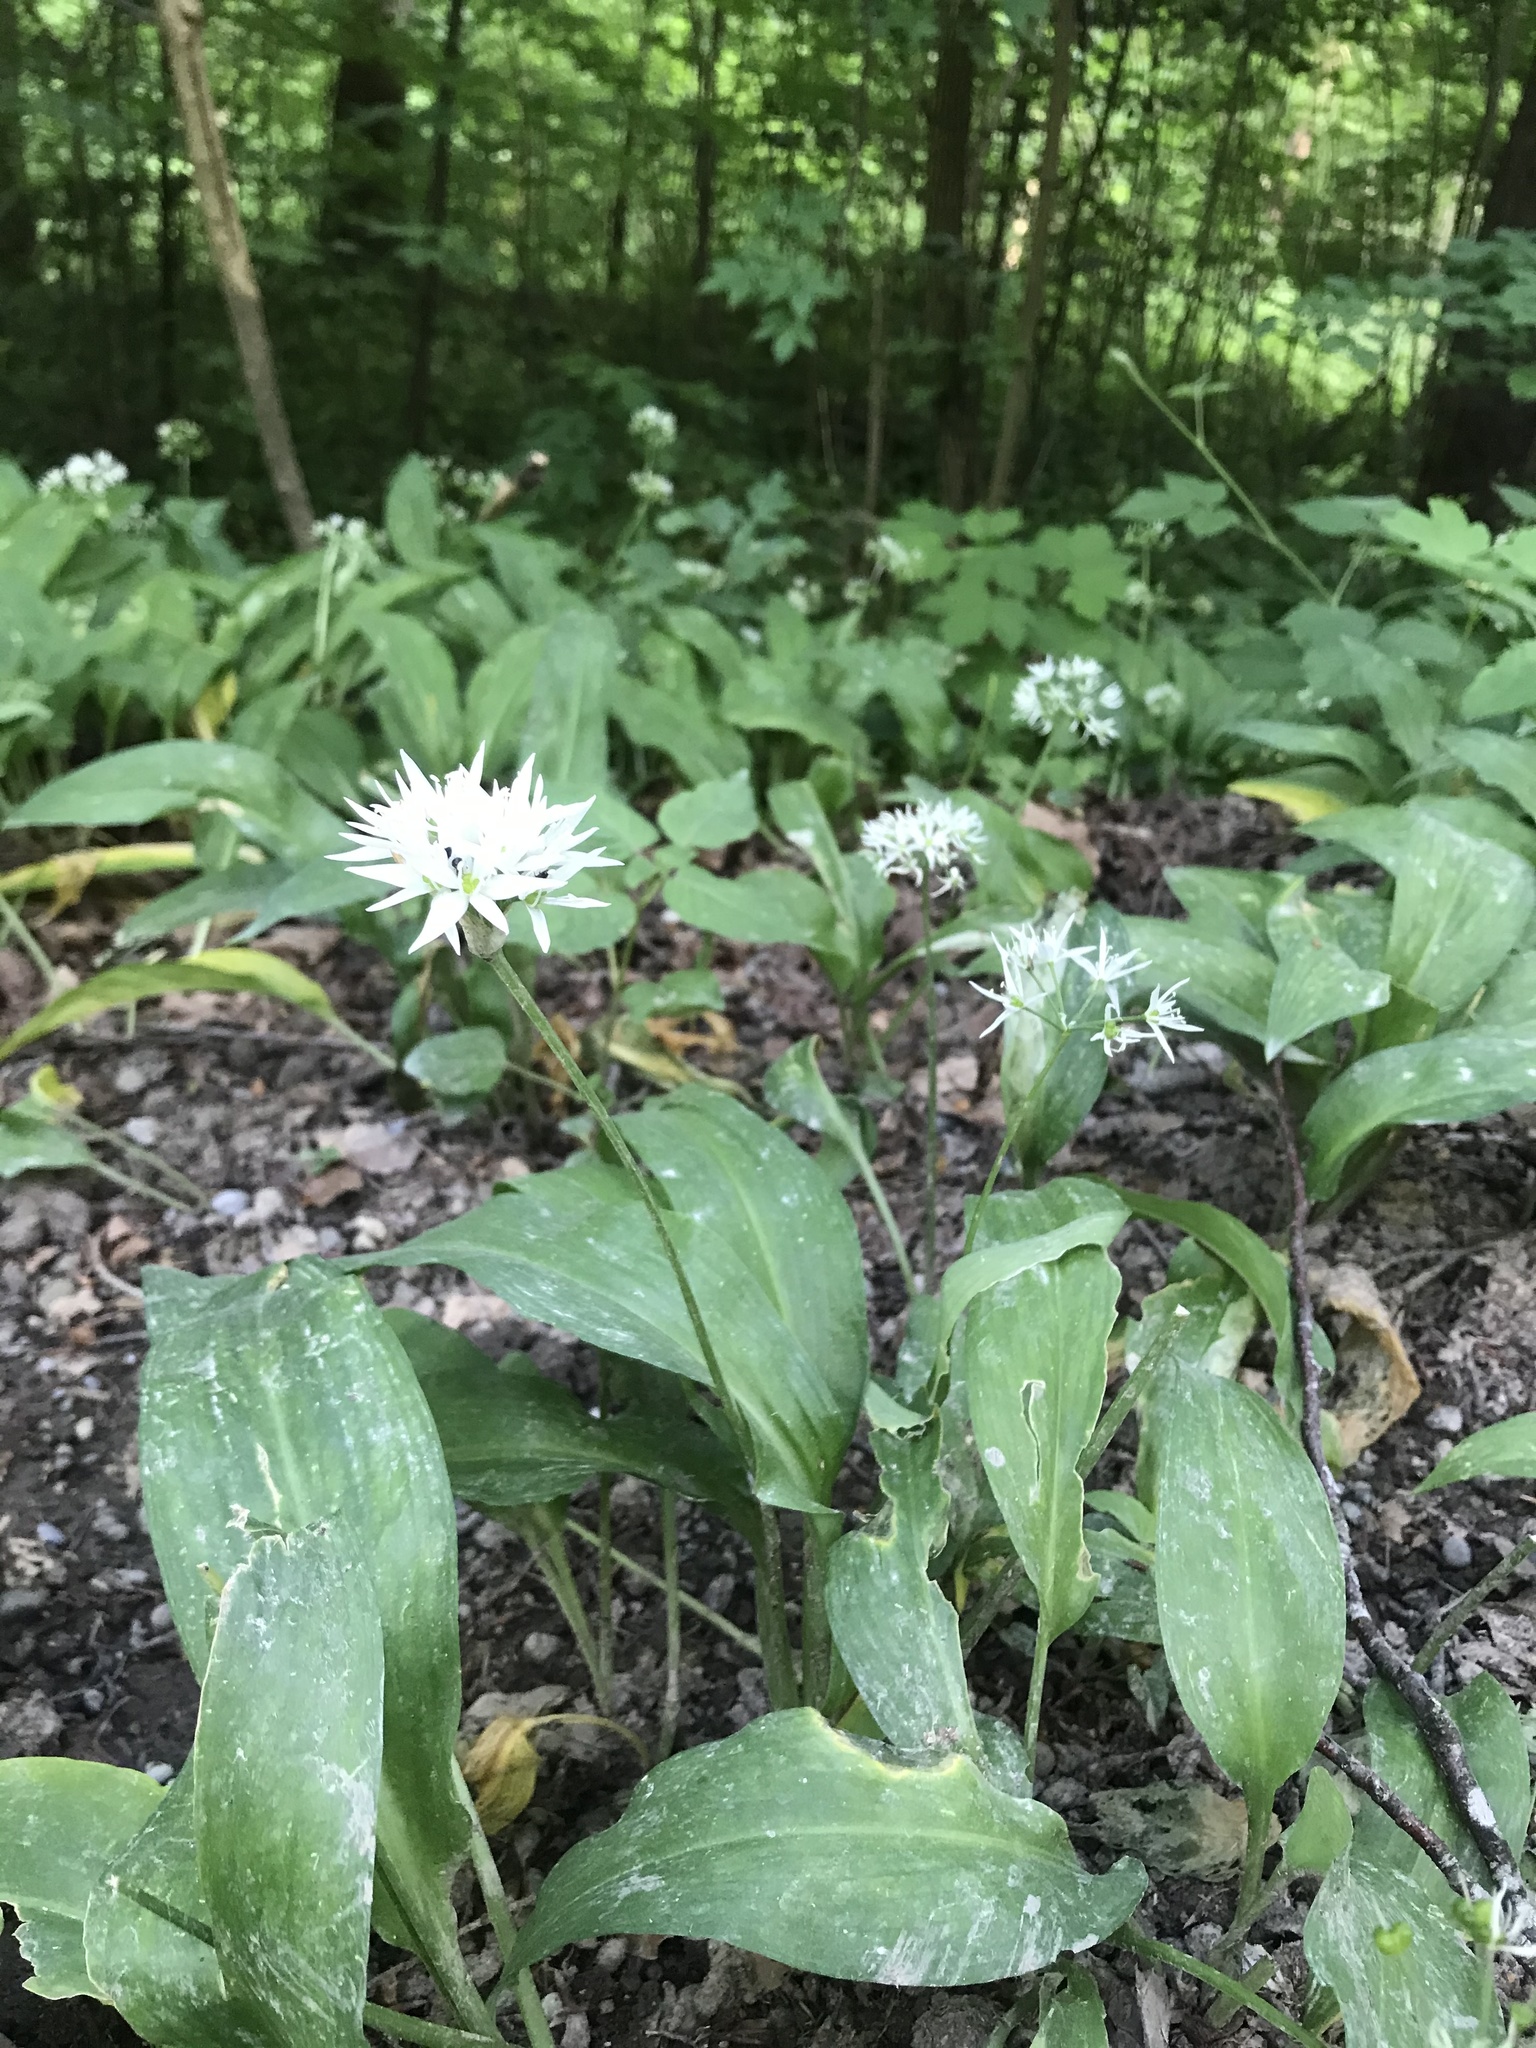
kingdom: Plantae
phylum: Tracheophyta
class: Liliopsida
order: Asparagales
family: Amaryllidaceae
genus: Allium
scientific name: Allium ursinum
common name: Ramsons
